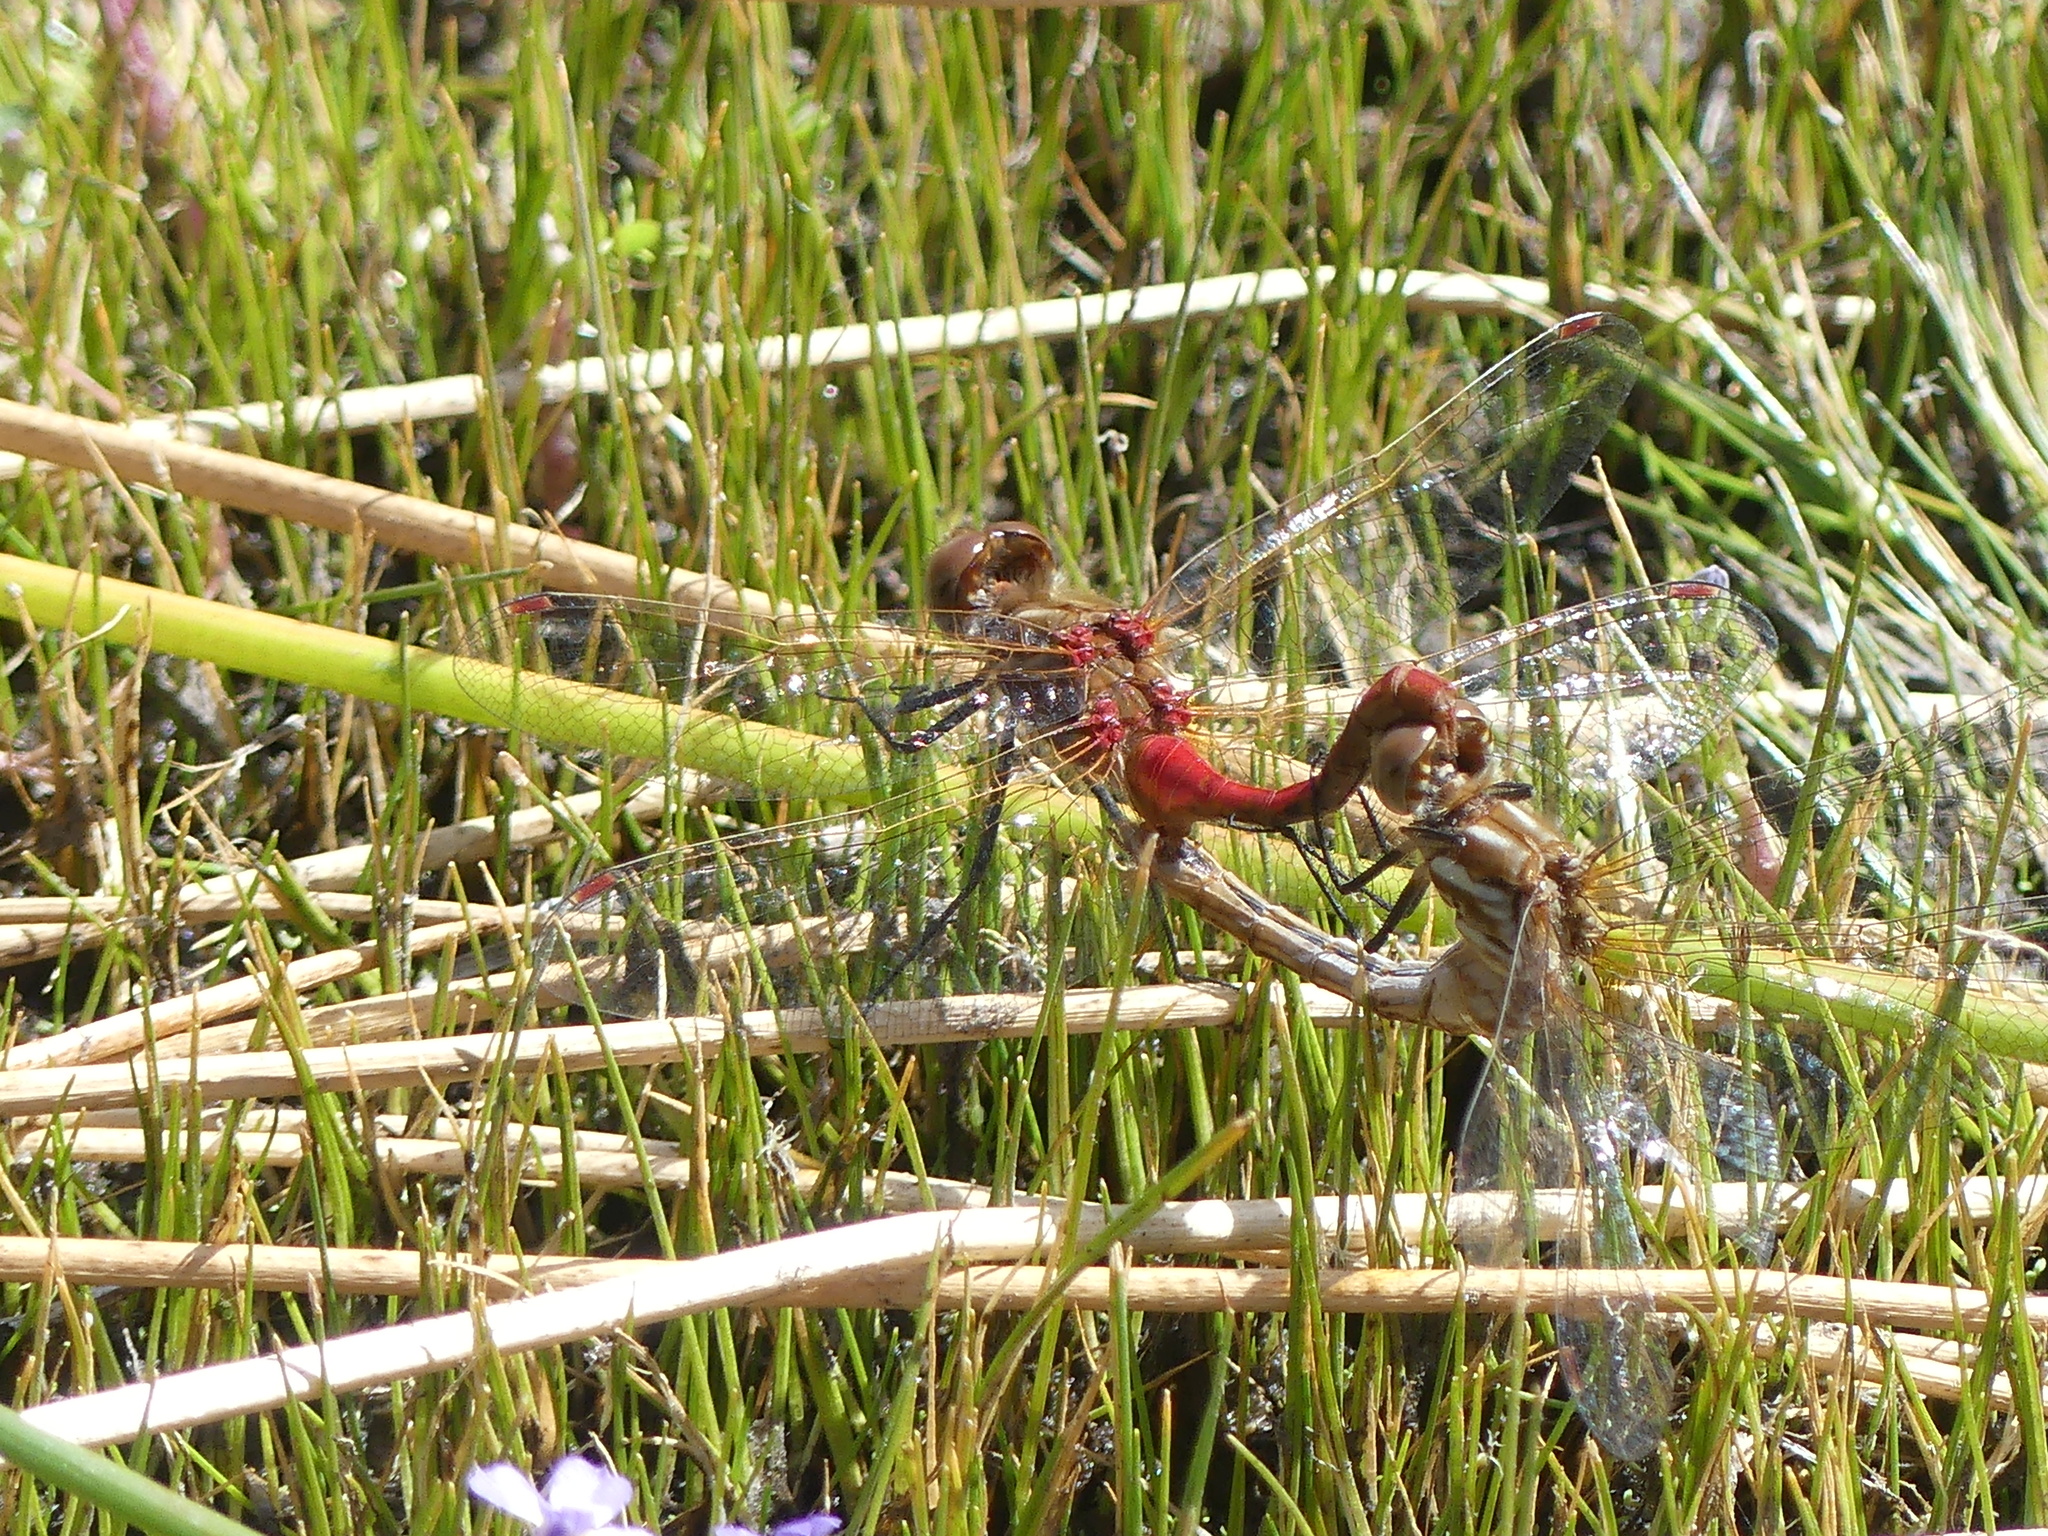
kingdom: Animalia
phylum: Arthropoda
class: Insecta
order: Odonata
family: Libellulidae
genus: Sympetrum
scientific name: Sympetrum pallipes
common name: Striped meadowhawk
